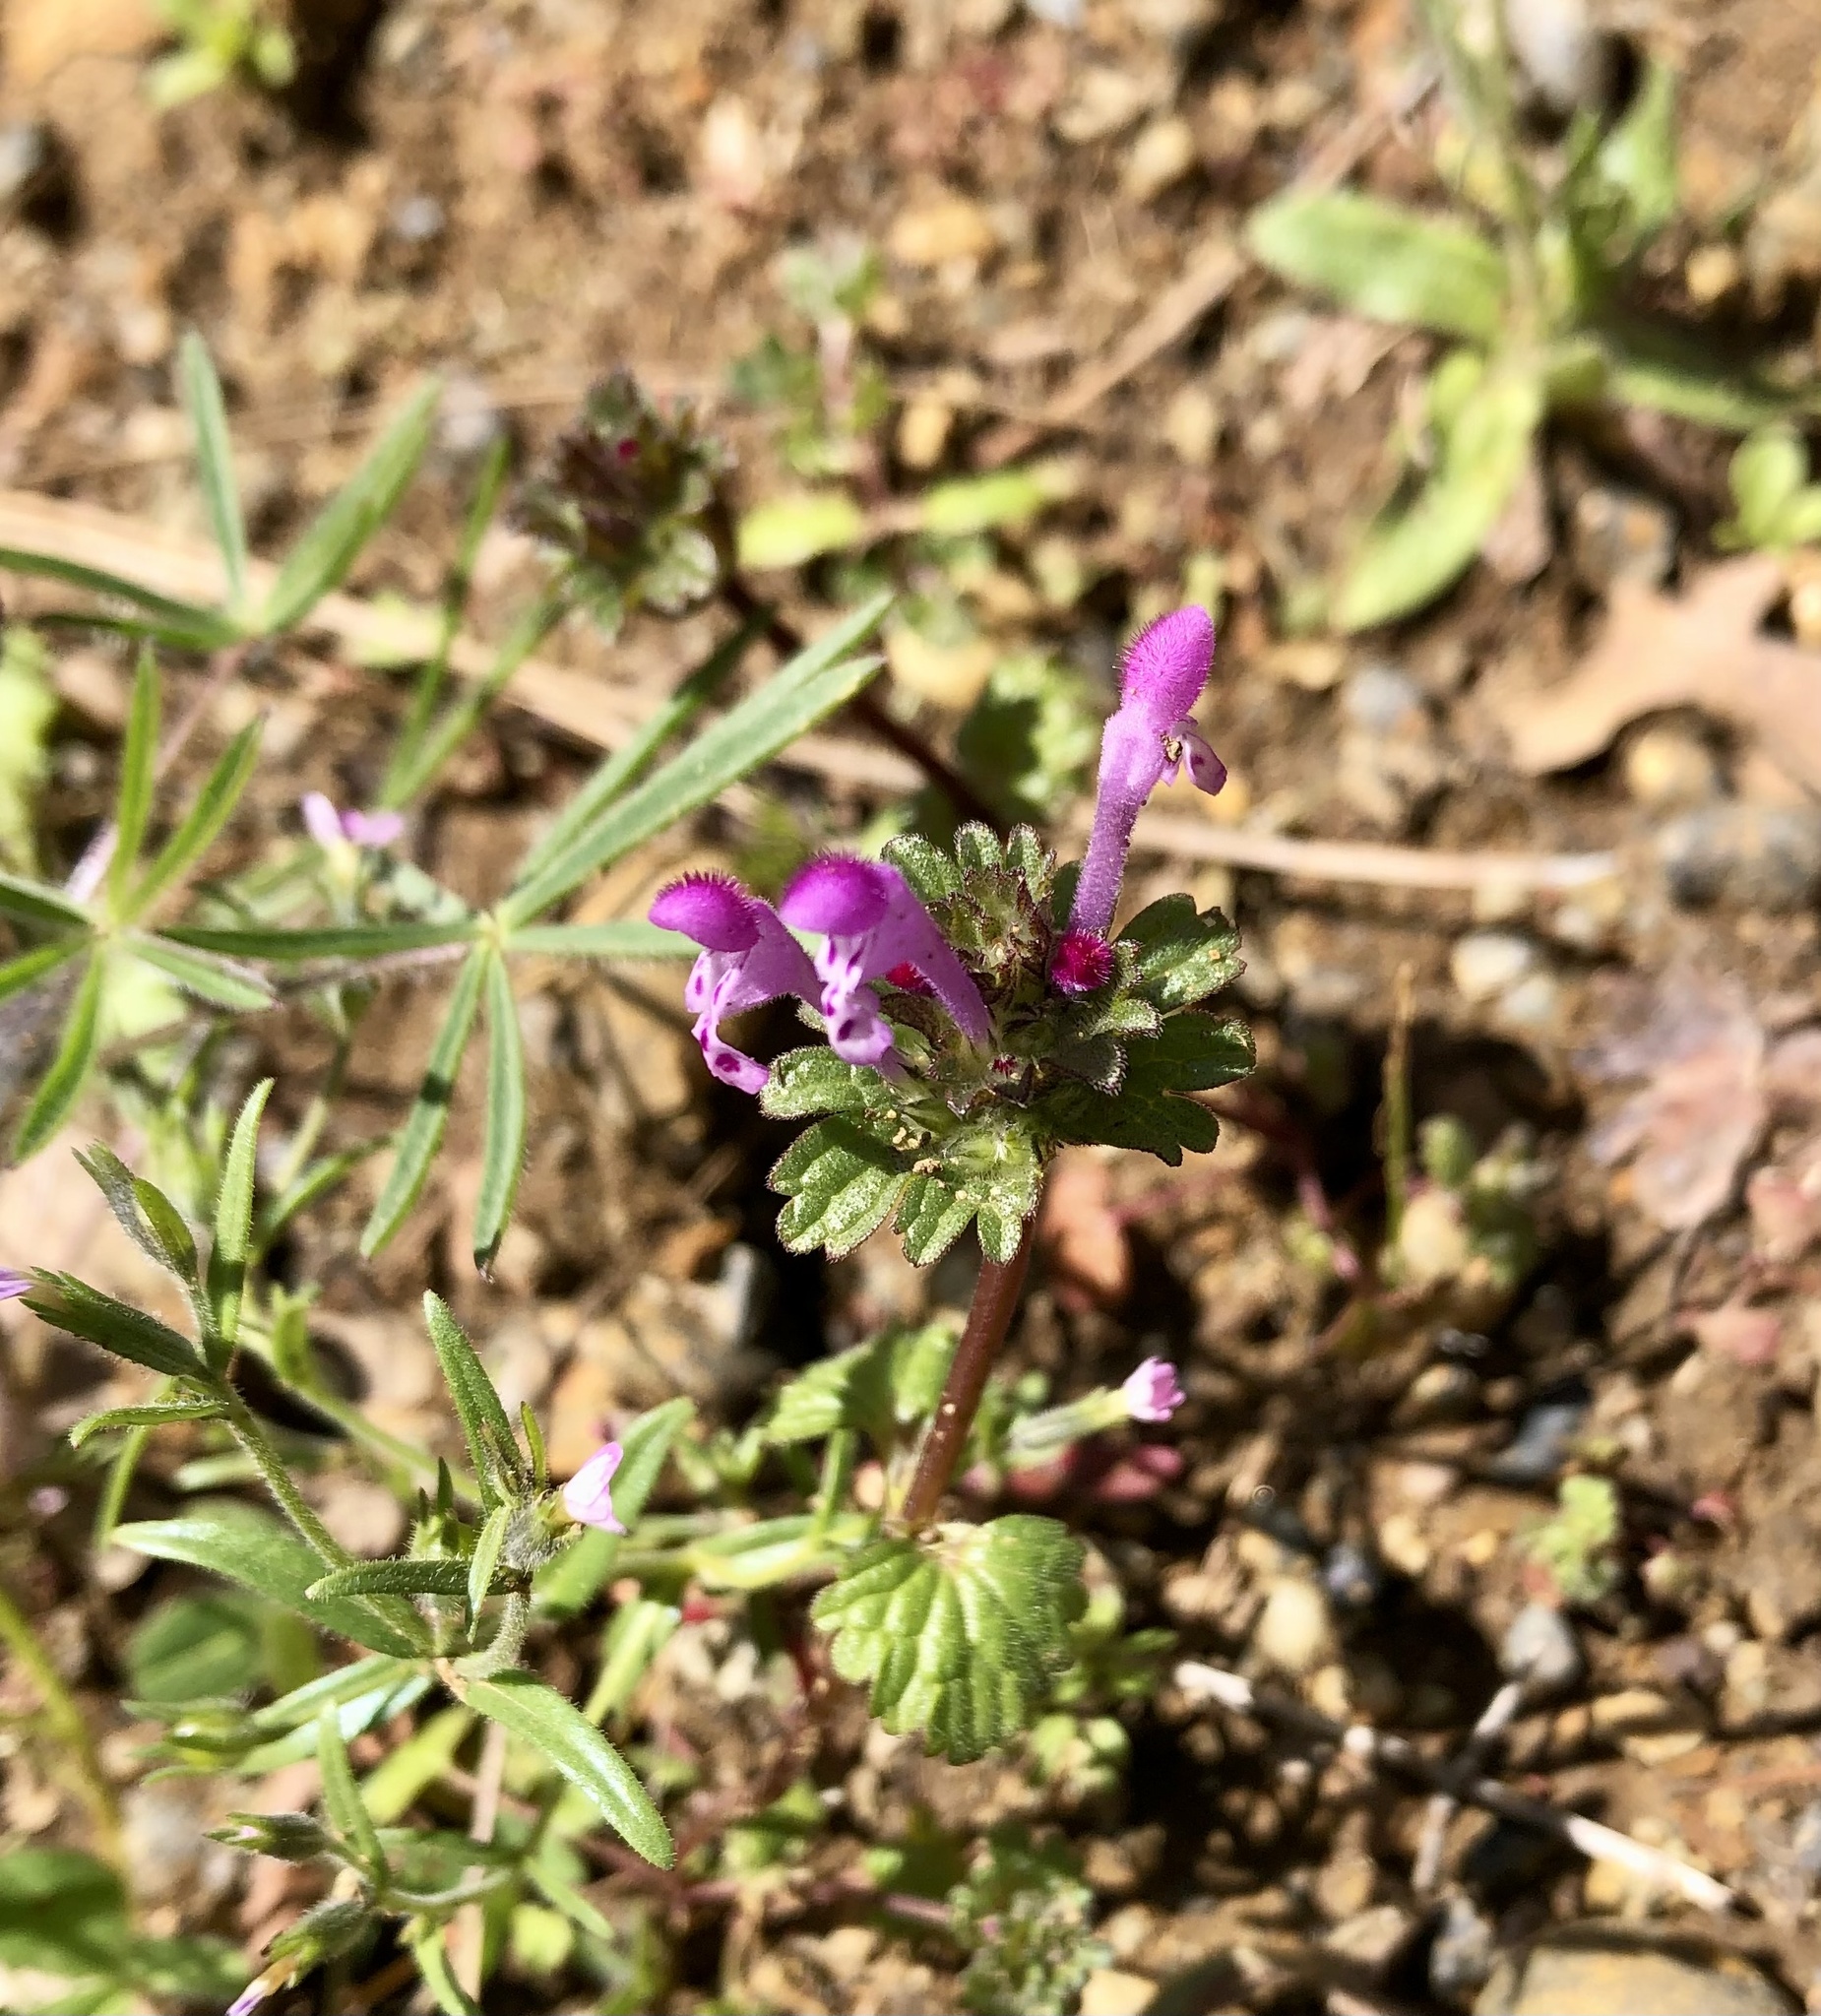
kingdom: Plantae
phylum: Tracheophyta
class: Magnoliopsida
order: Lamiales
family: Lamiaceae
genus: Lamium
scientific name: Lamium amplexicaule
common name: Henbit dead-nettle
